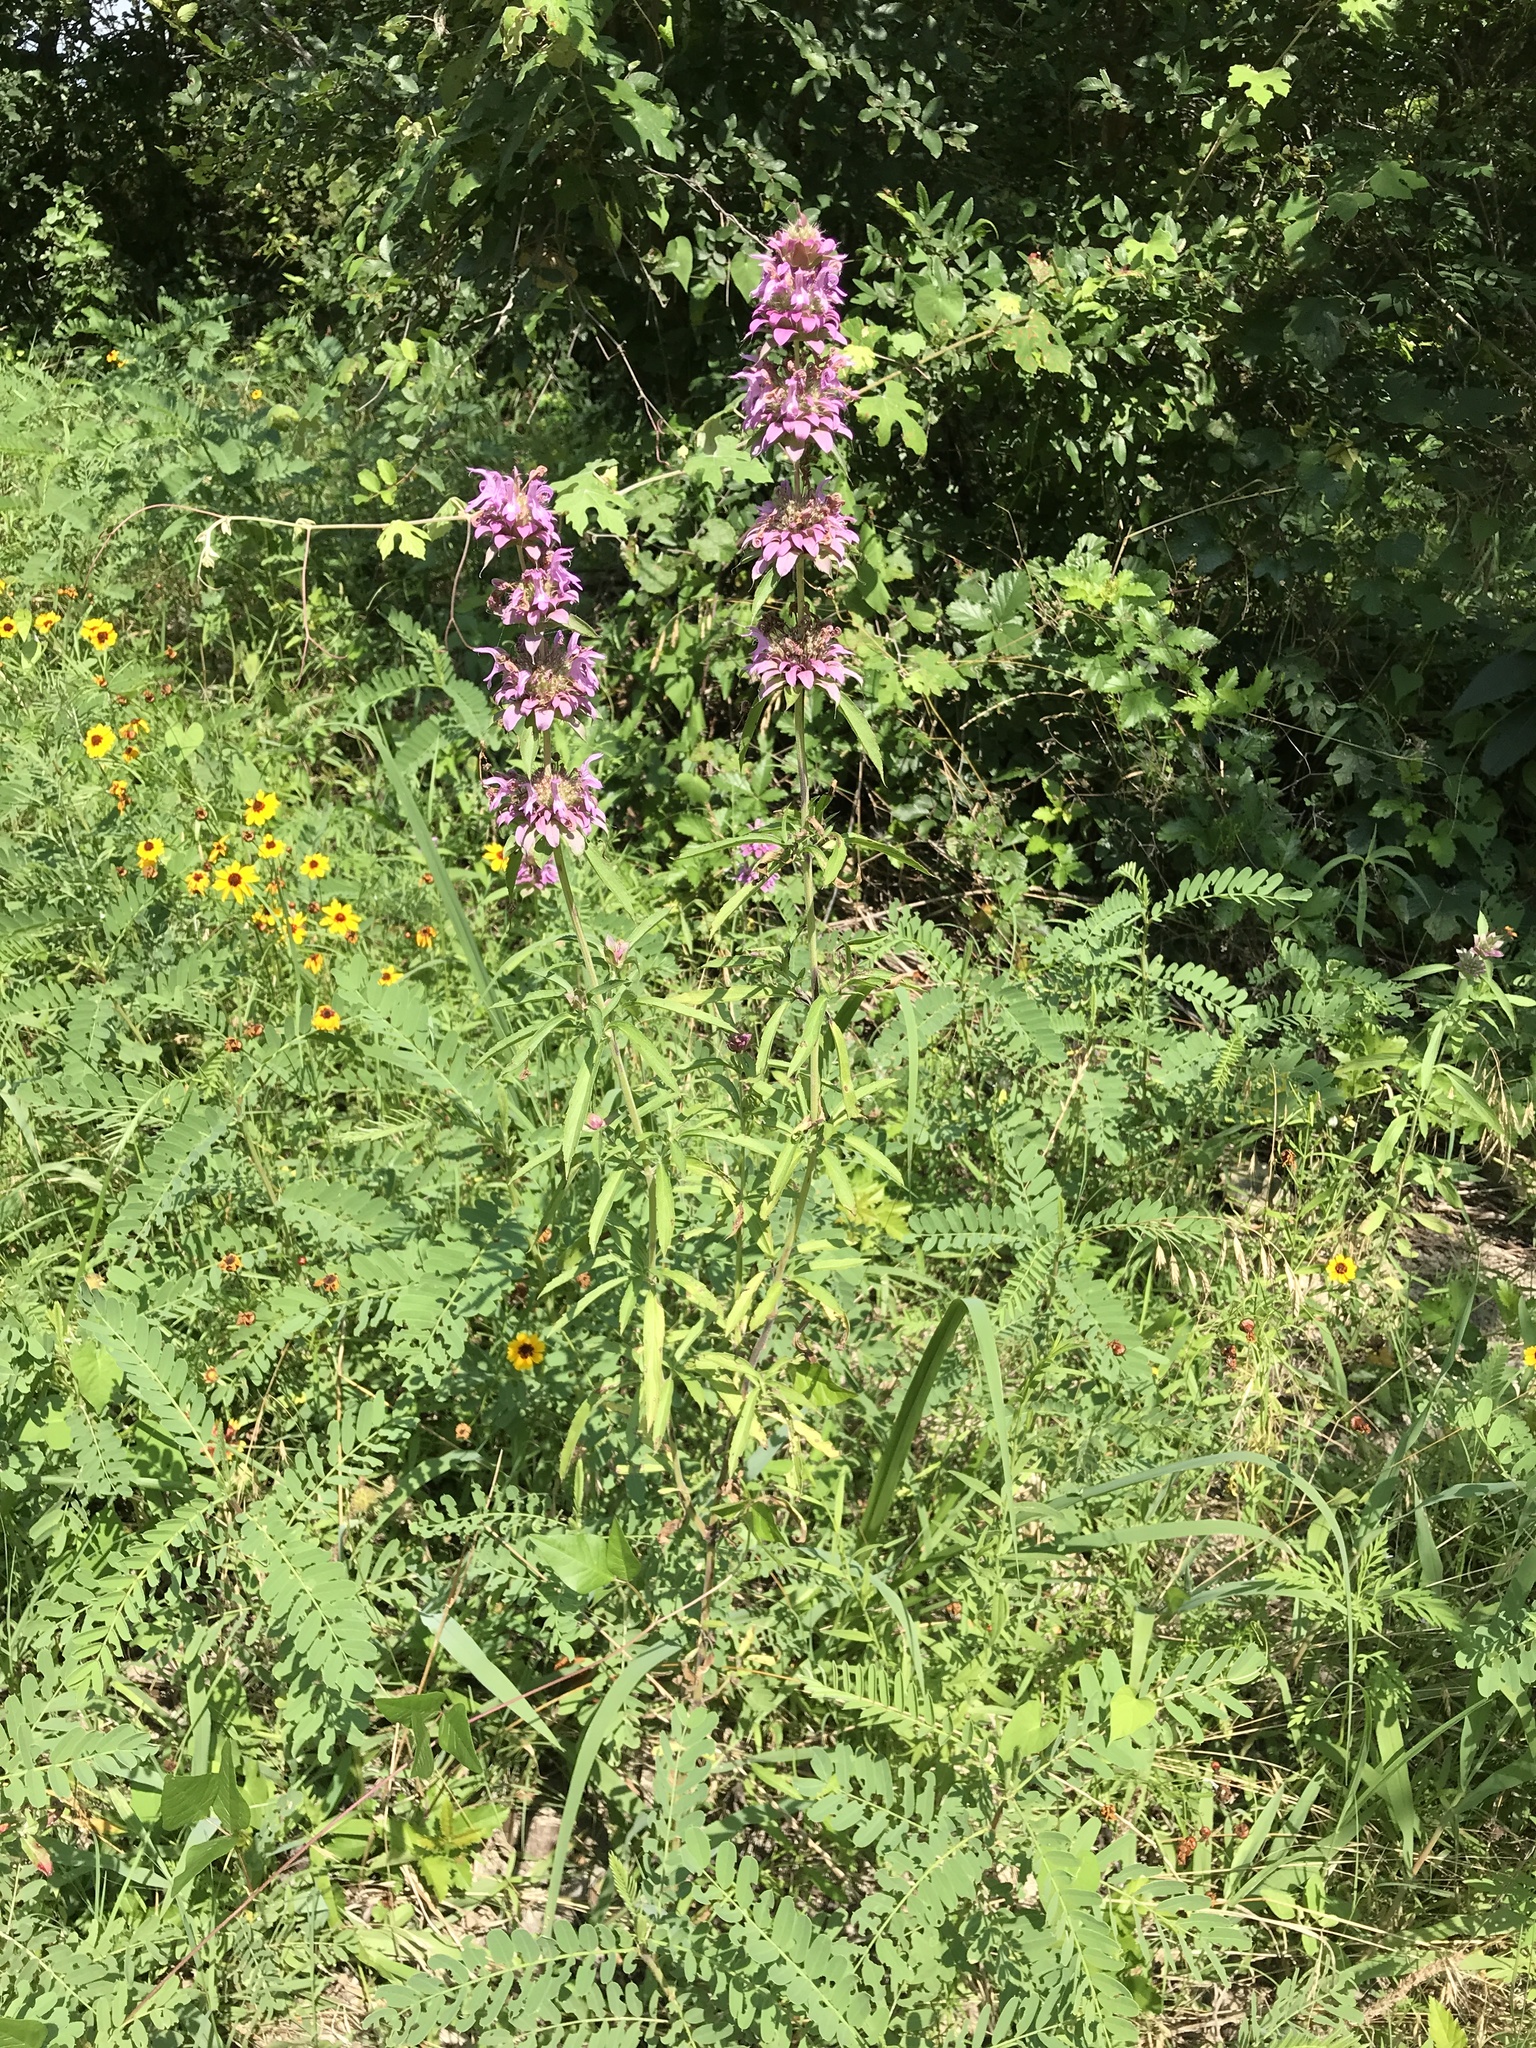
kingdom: Plantae
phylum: Tracheophyta
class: Magnoliopsida
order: Lamiales
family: Lamiaceae
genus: Monarda
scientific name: Monarda citriodora
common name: Lemon beebalm
